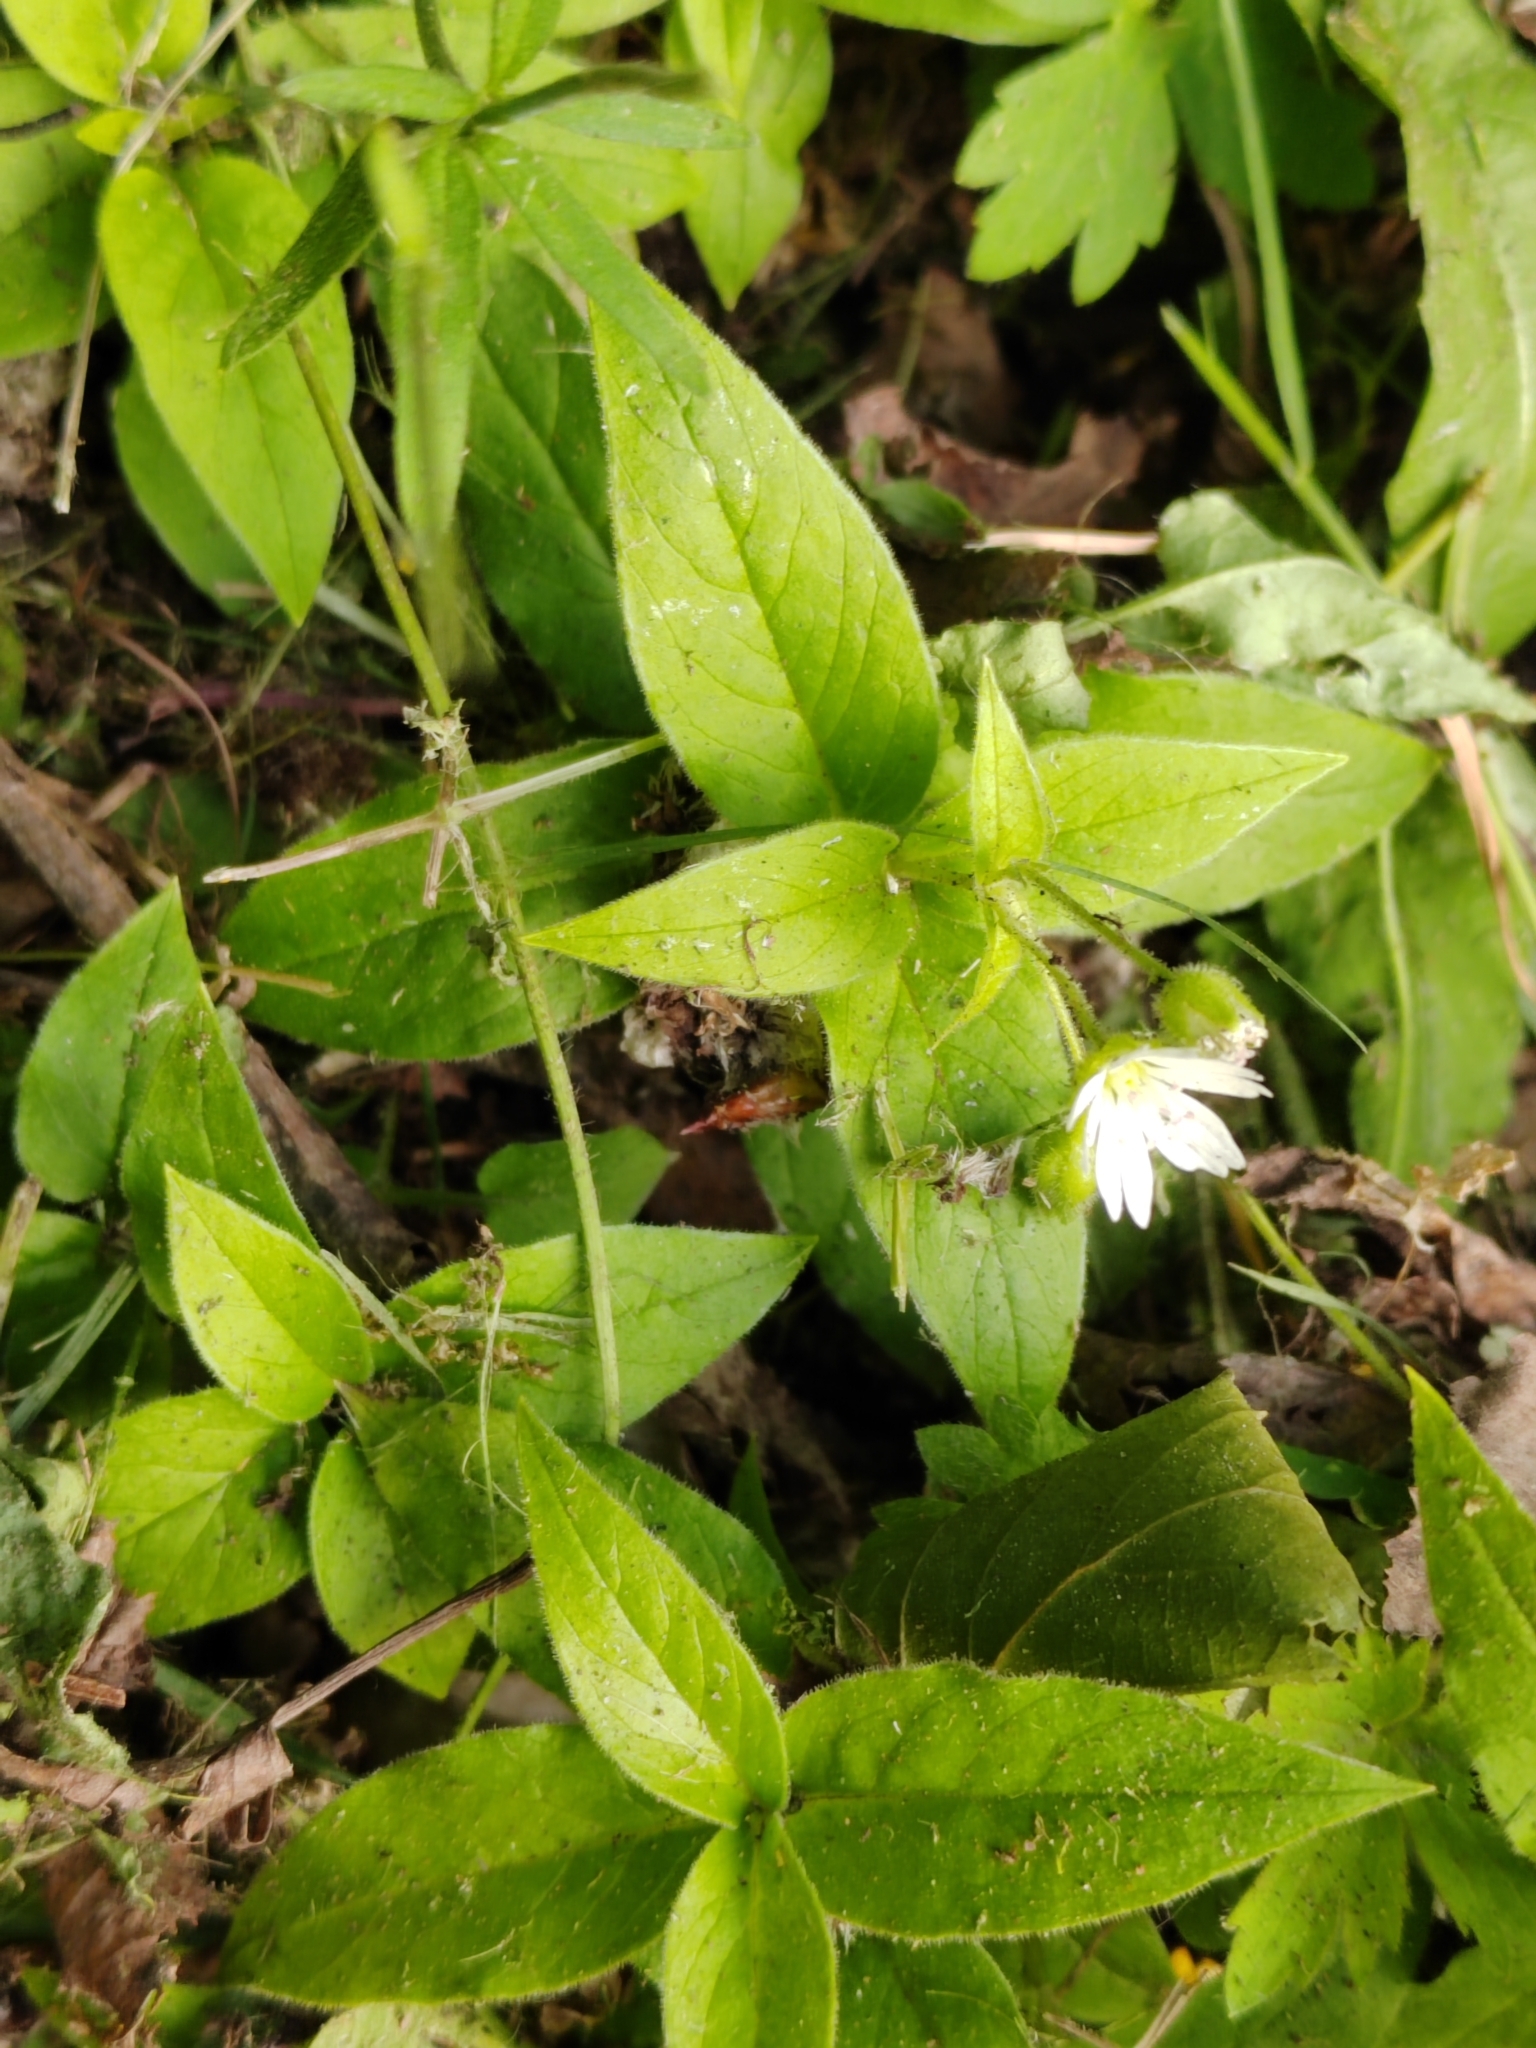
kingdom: Plantae
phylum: Tracheophyta
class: Magnoliopsida
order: Caryophyllales
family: Caryophyllaceae
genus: Stellaria
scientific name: Stellaria bungeana
